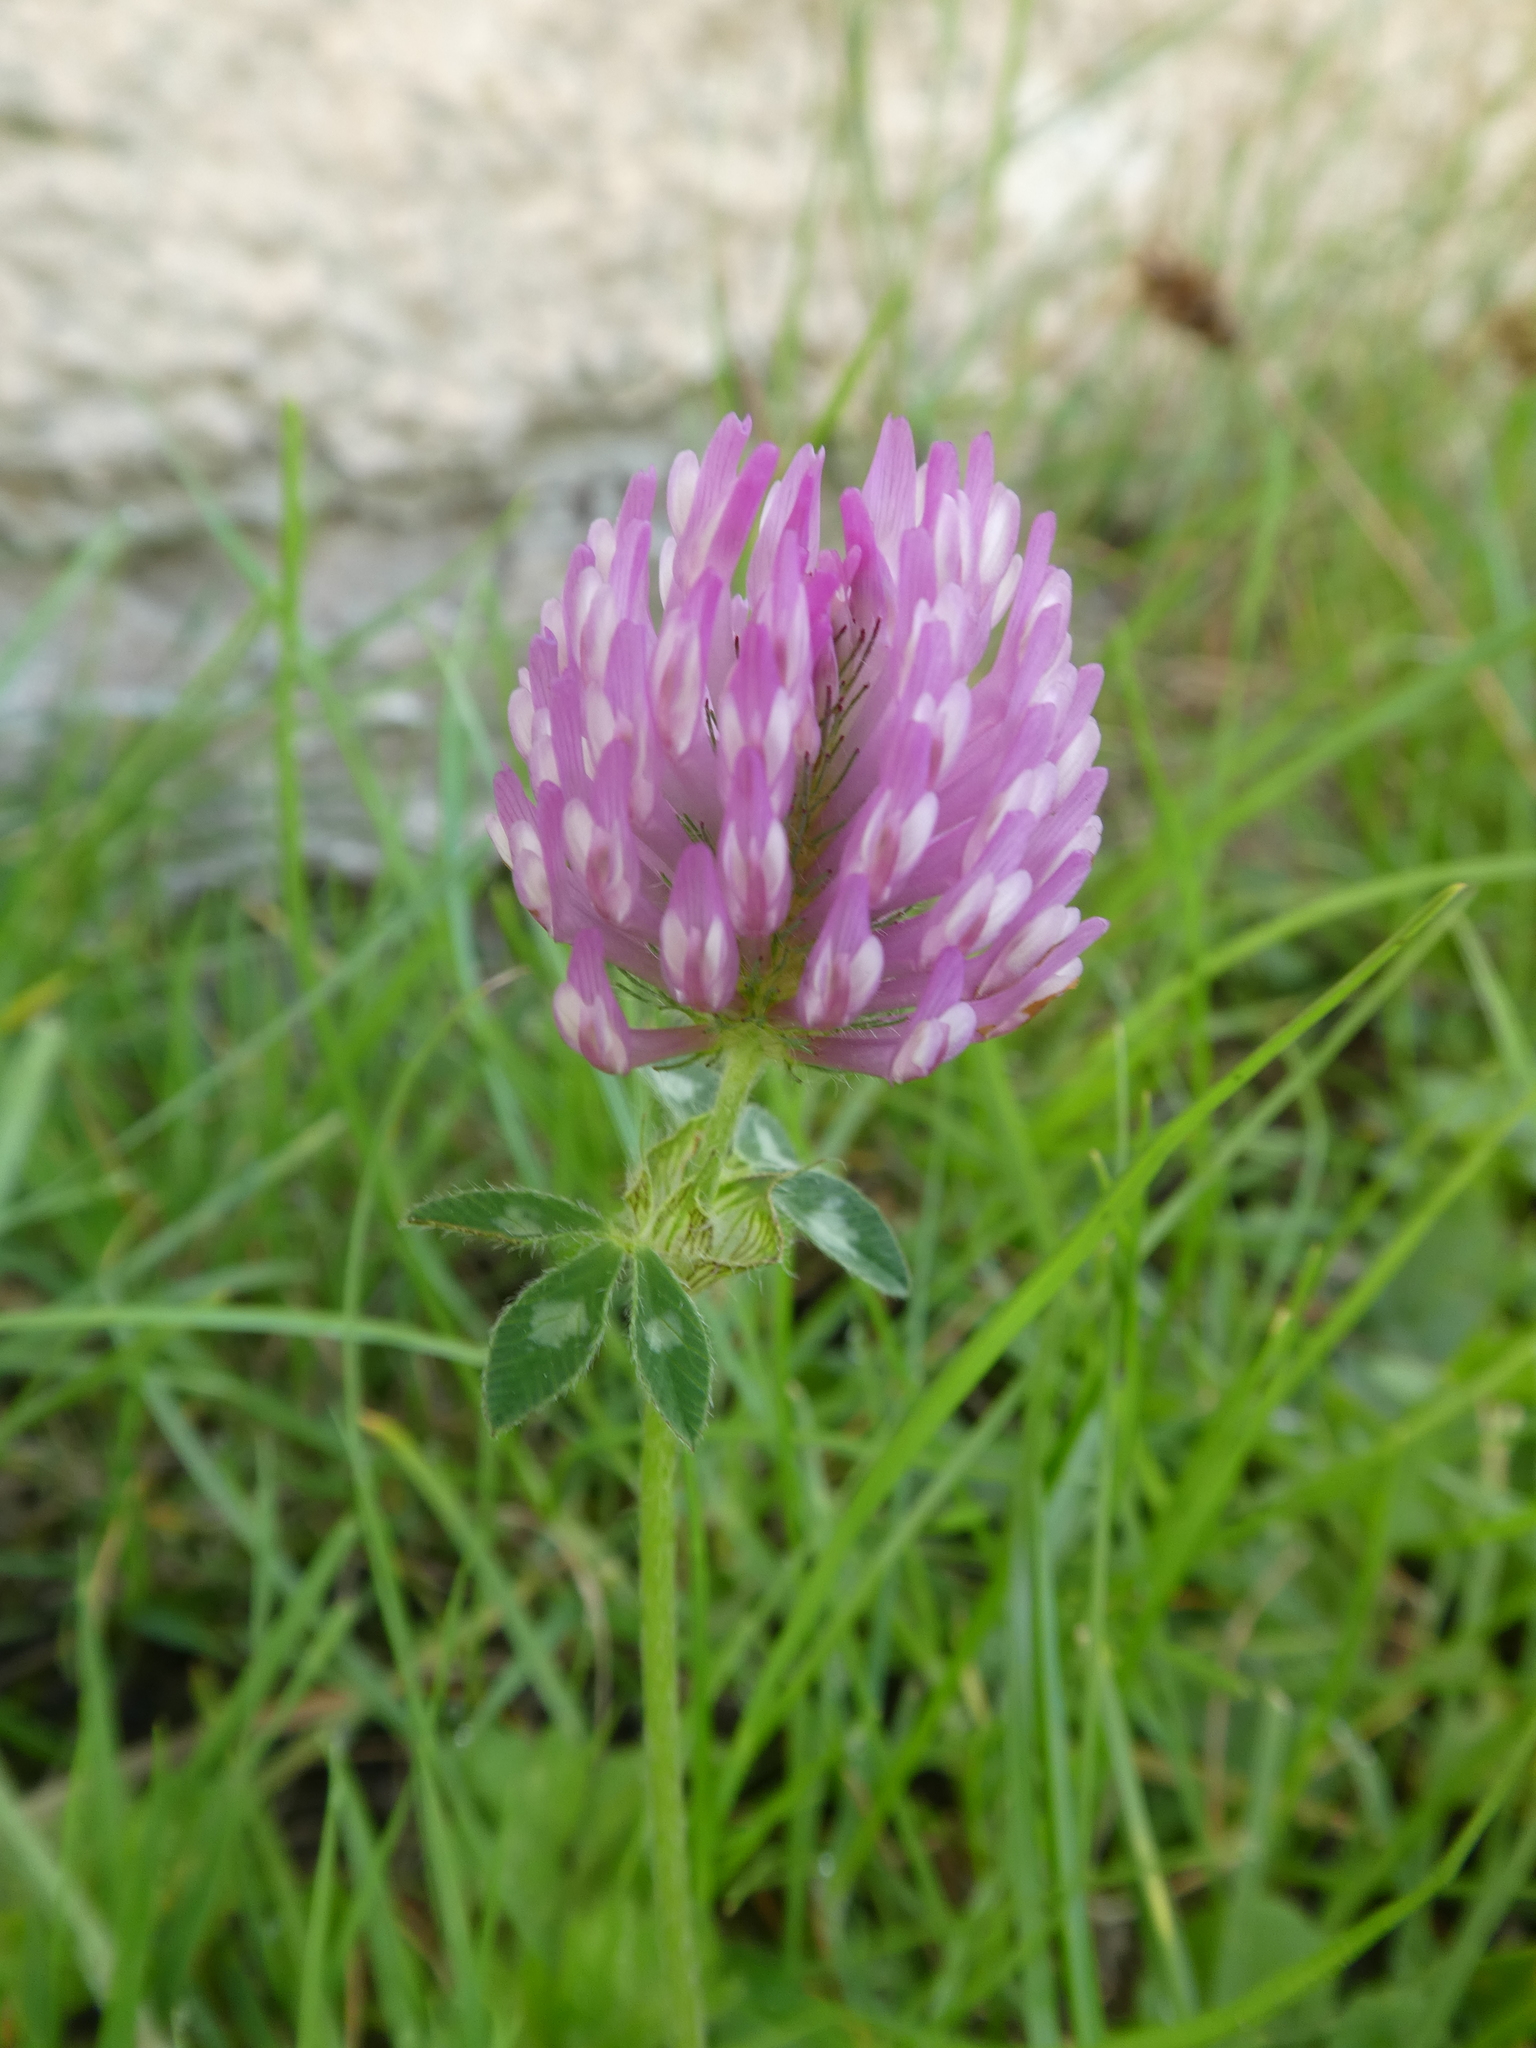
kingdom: Plantae
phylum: Tracheophyta
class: Magnoliopsida
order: Fabales
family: Fabaceae
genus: Trifolium
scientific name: Trifolium pratense
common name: Red clover
